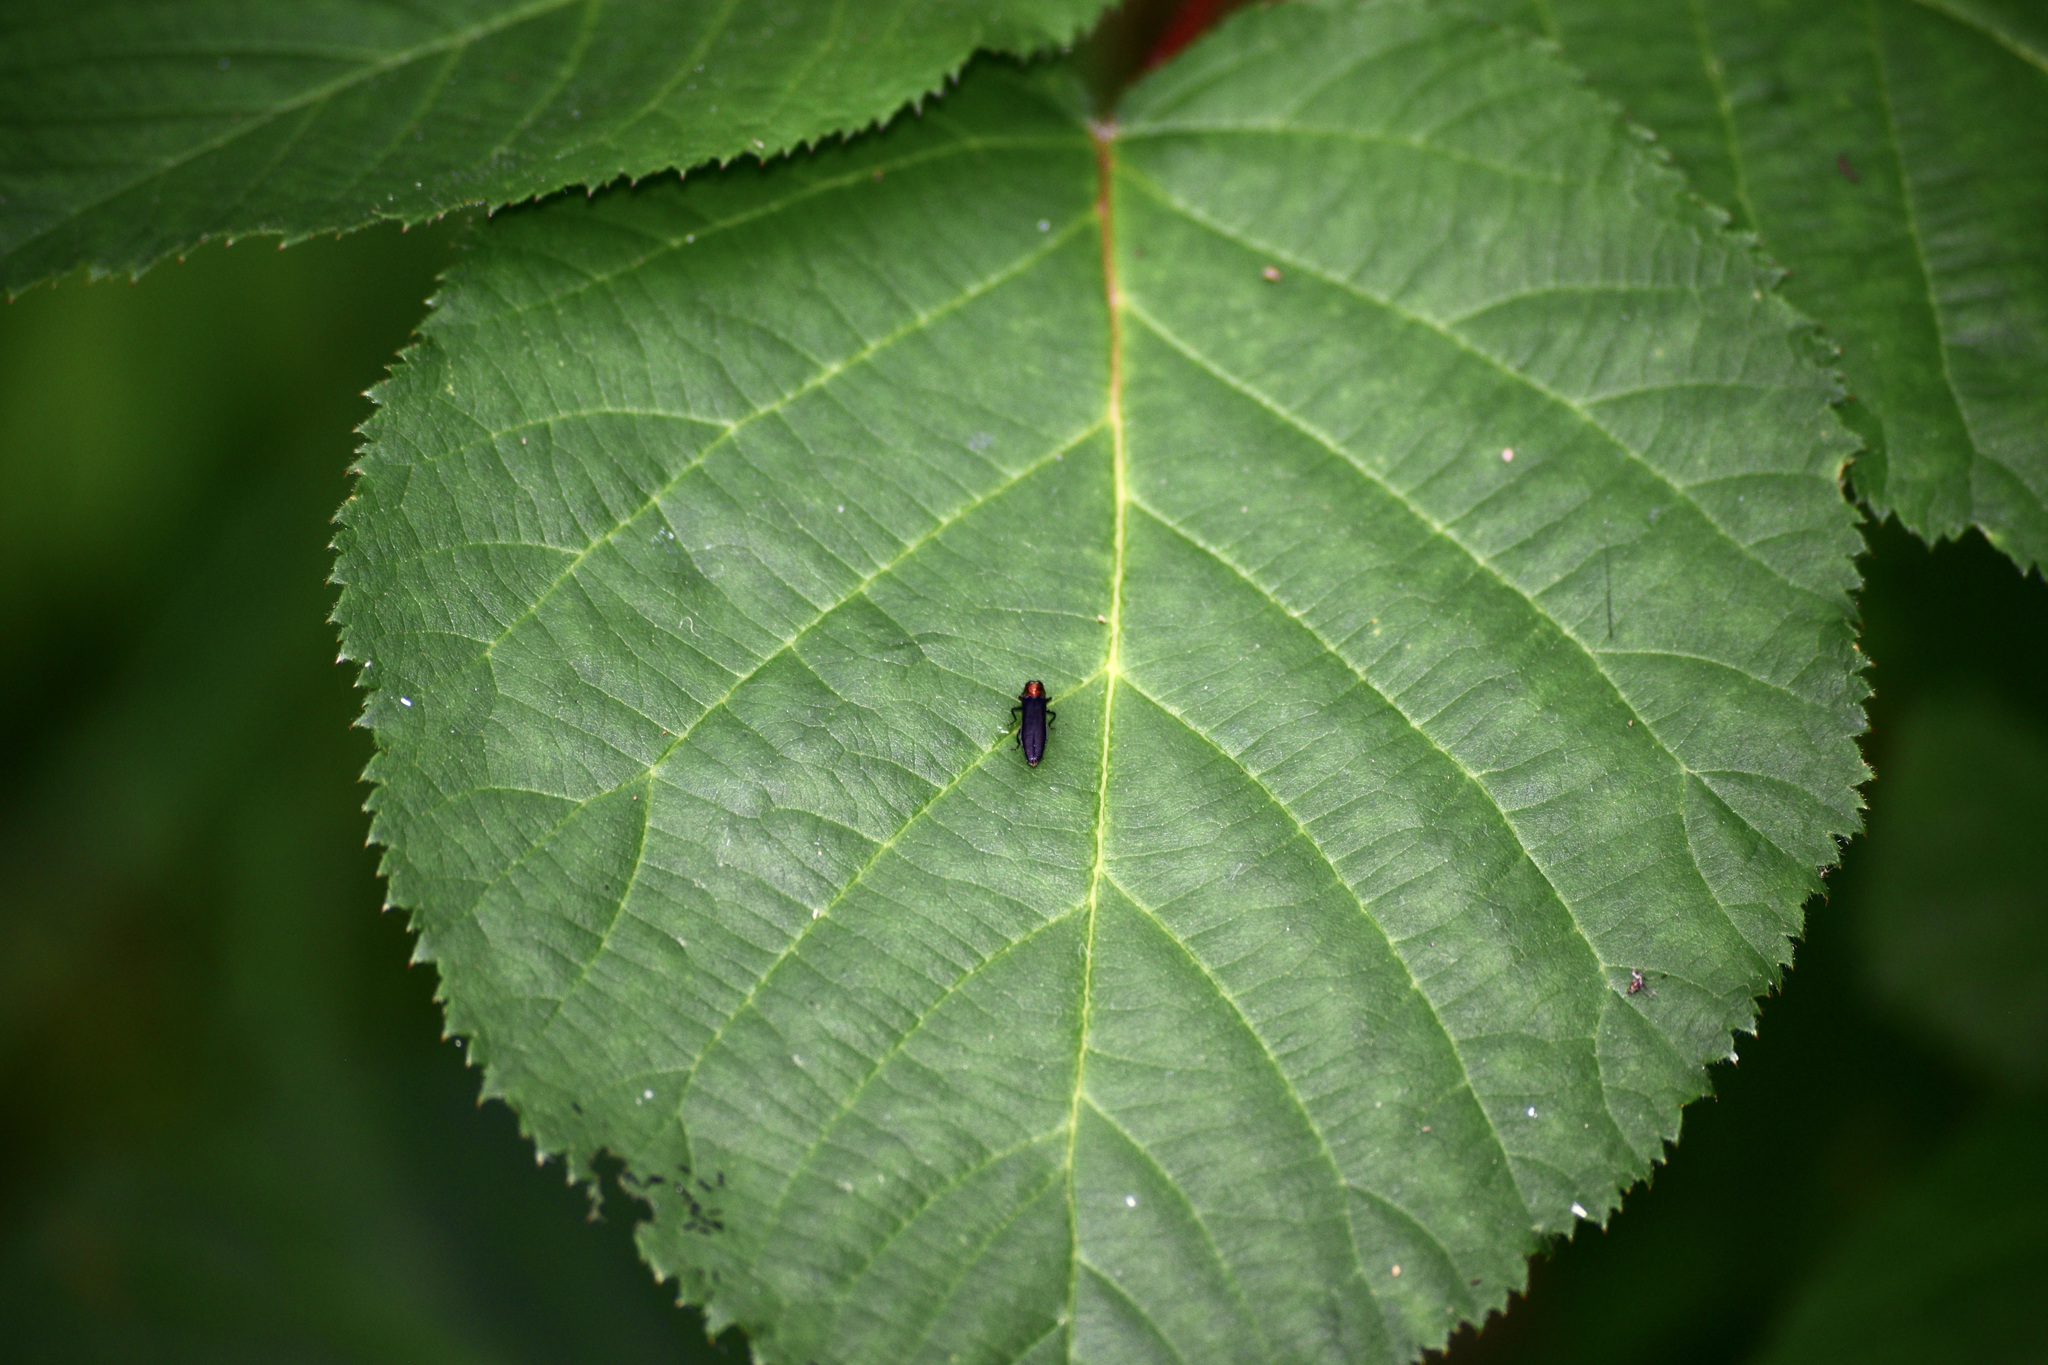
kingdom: Animalia
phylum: Arthropoda
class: Insecta
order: Coleoptera
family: Buprestidae
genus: Agrilus
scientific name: Agrilus ruficollis
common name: Red-necked cane borer beetle
